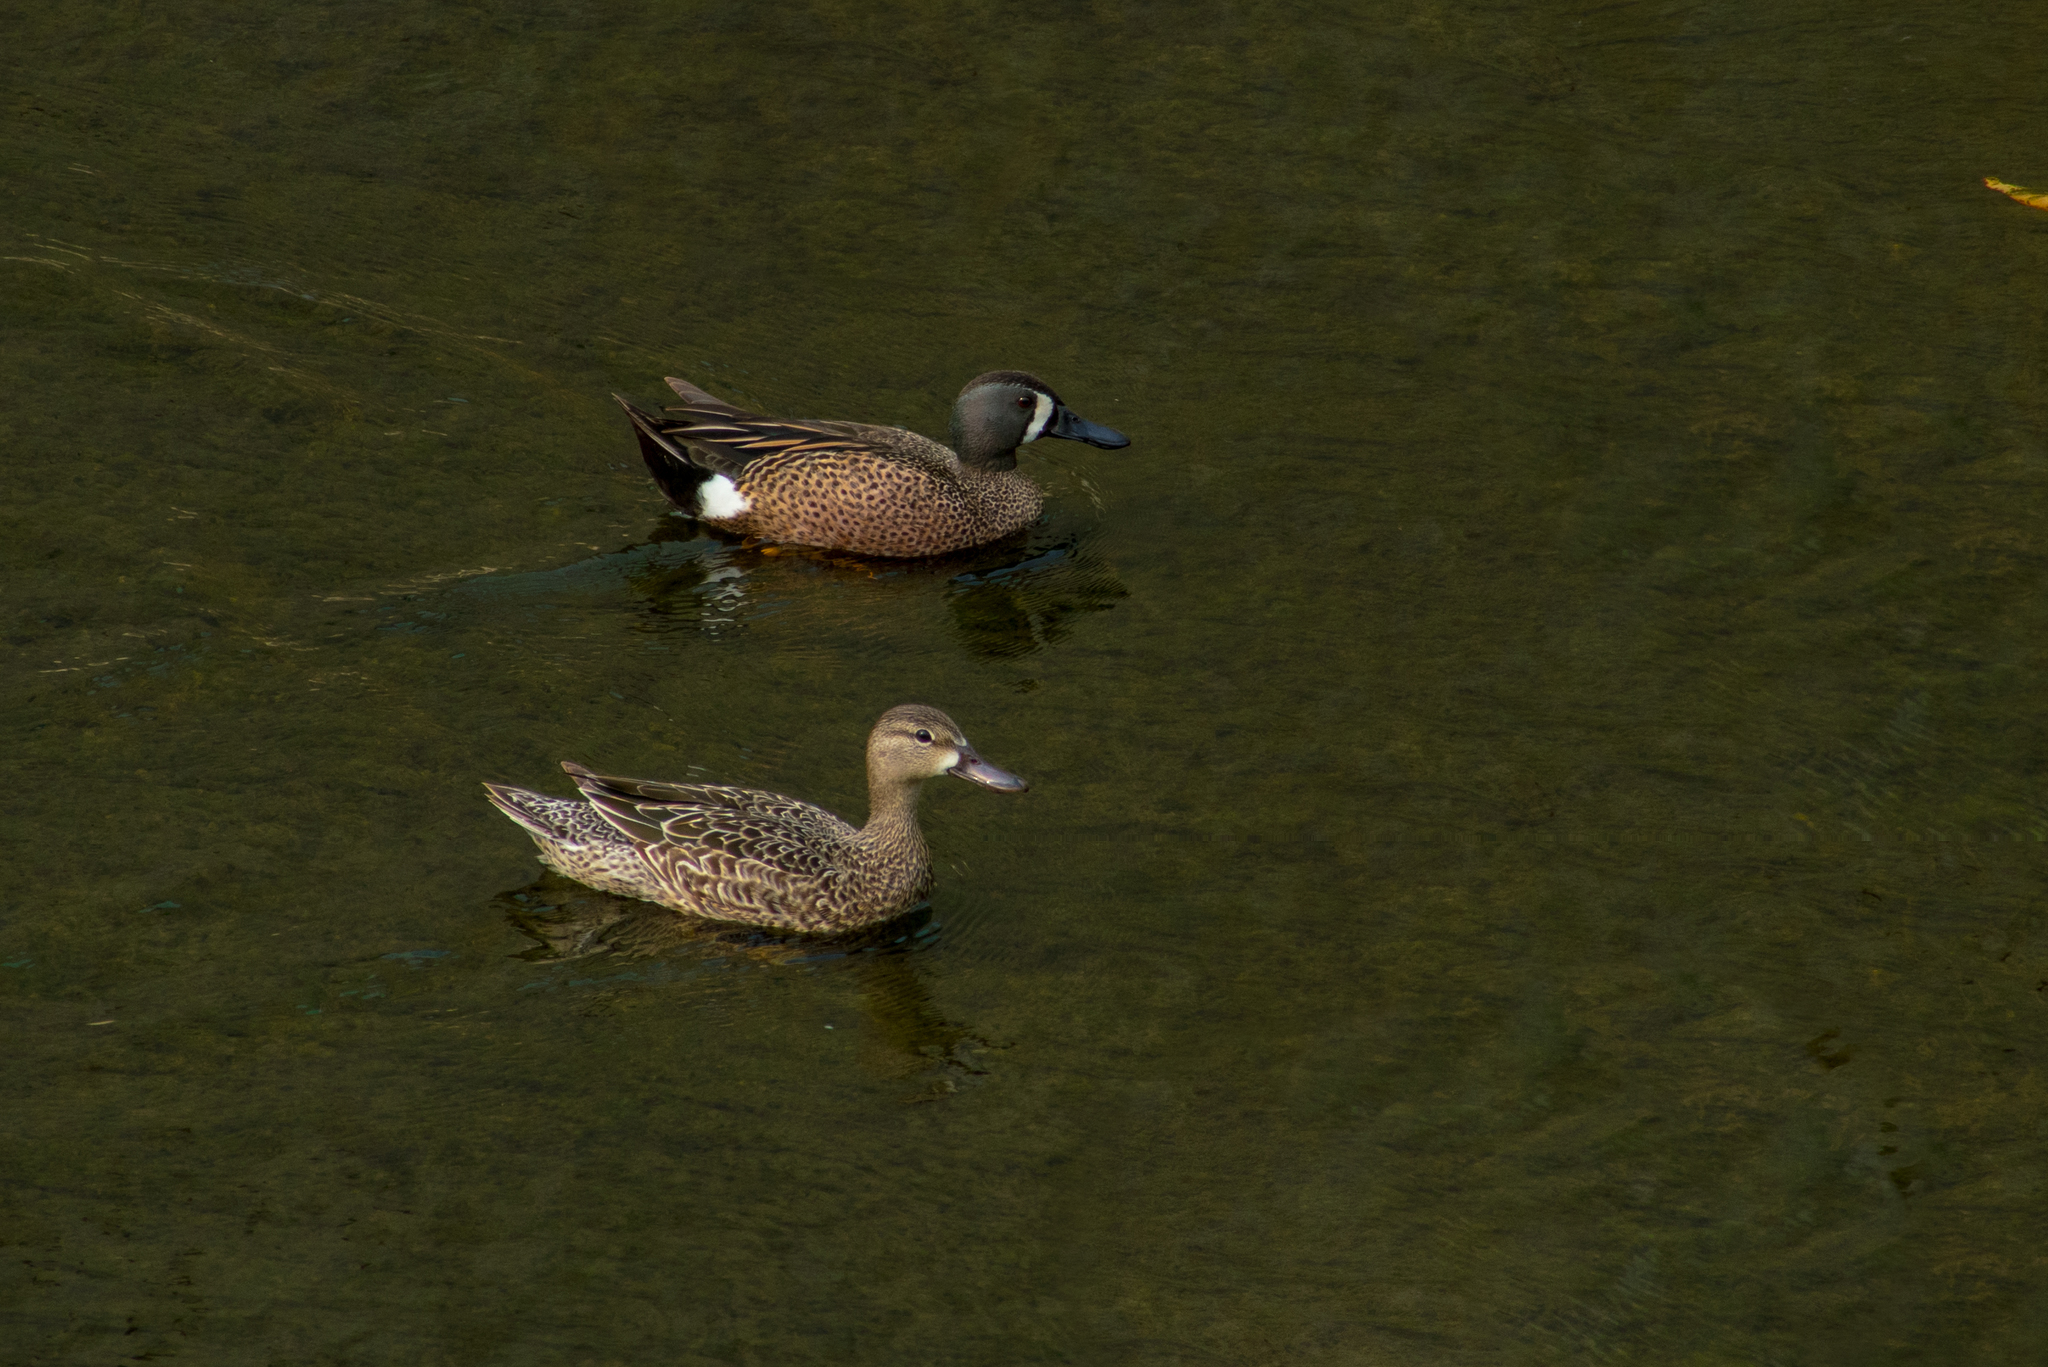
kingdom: Animalia
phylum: Chordata
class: Aves
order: Anseriformes
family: Anatidae
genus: Spatula
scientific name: Spatula discors
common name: Blue-winged teal
